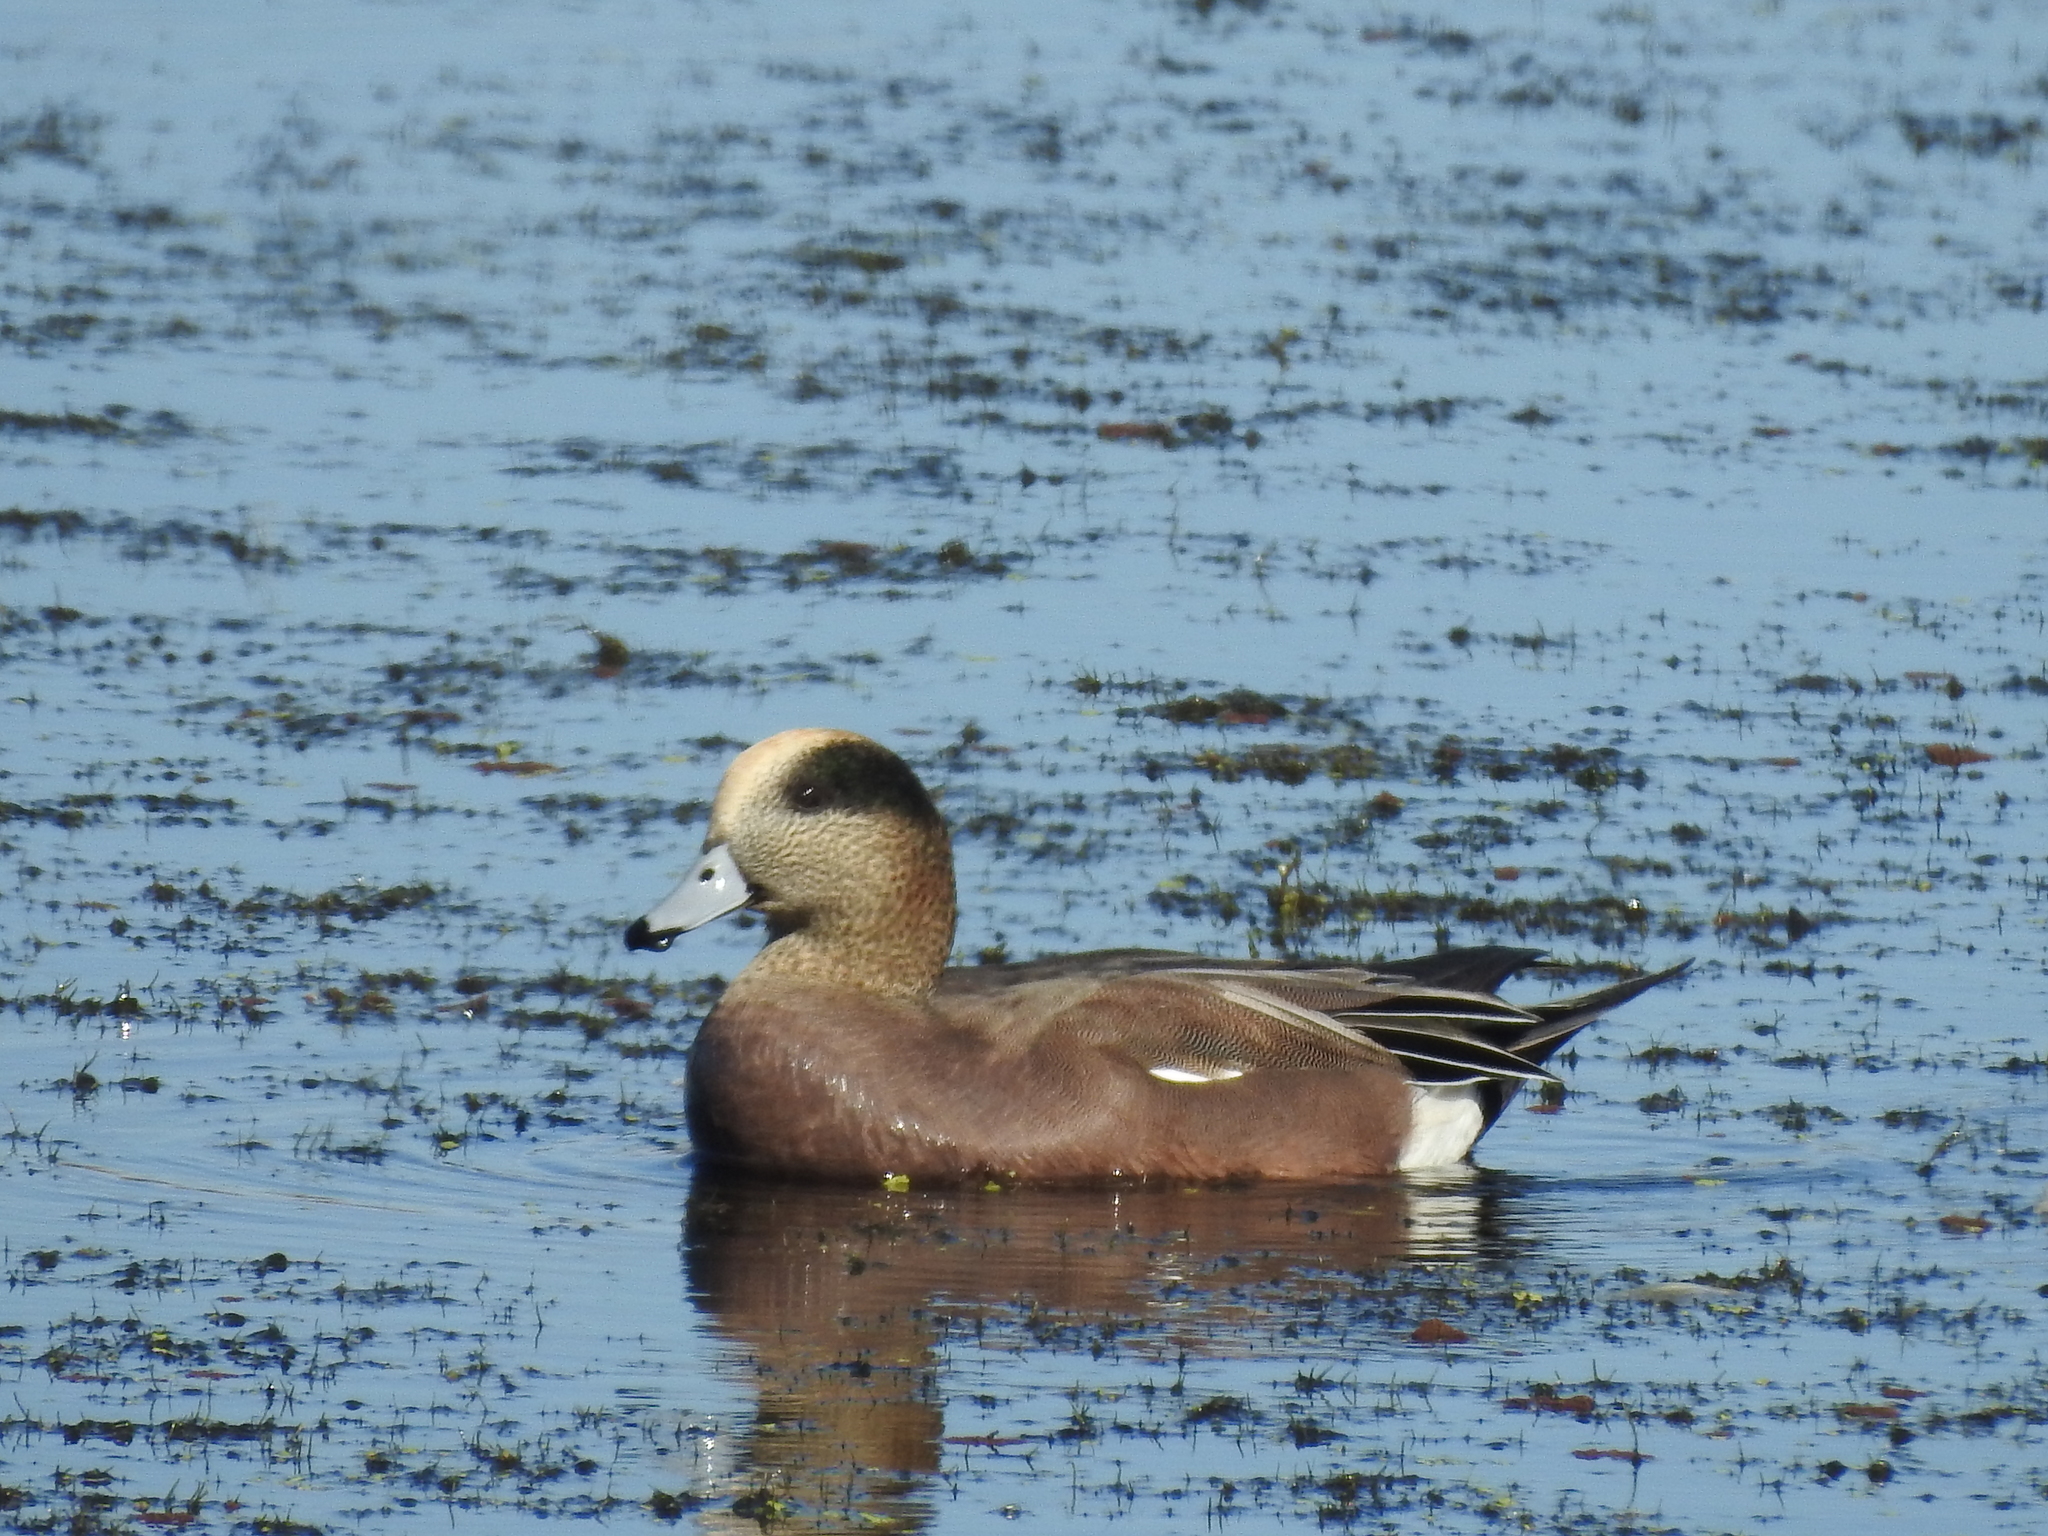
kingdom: Animalia
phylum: Chordata
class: Aves
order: Anseriformes
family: Anatidae
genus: Mareca
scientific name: Mareca americana
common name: American wigeon
